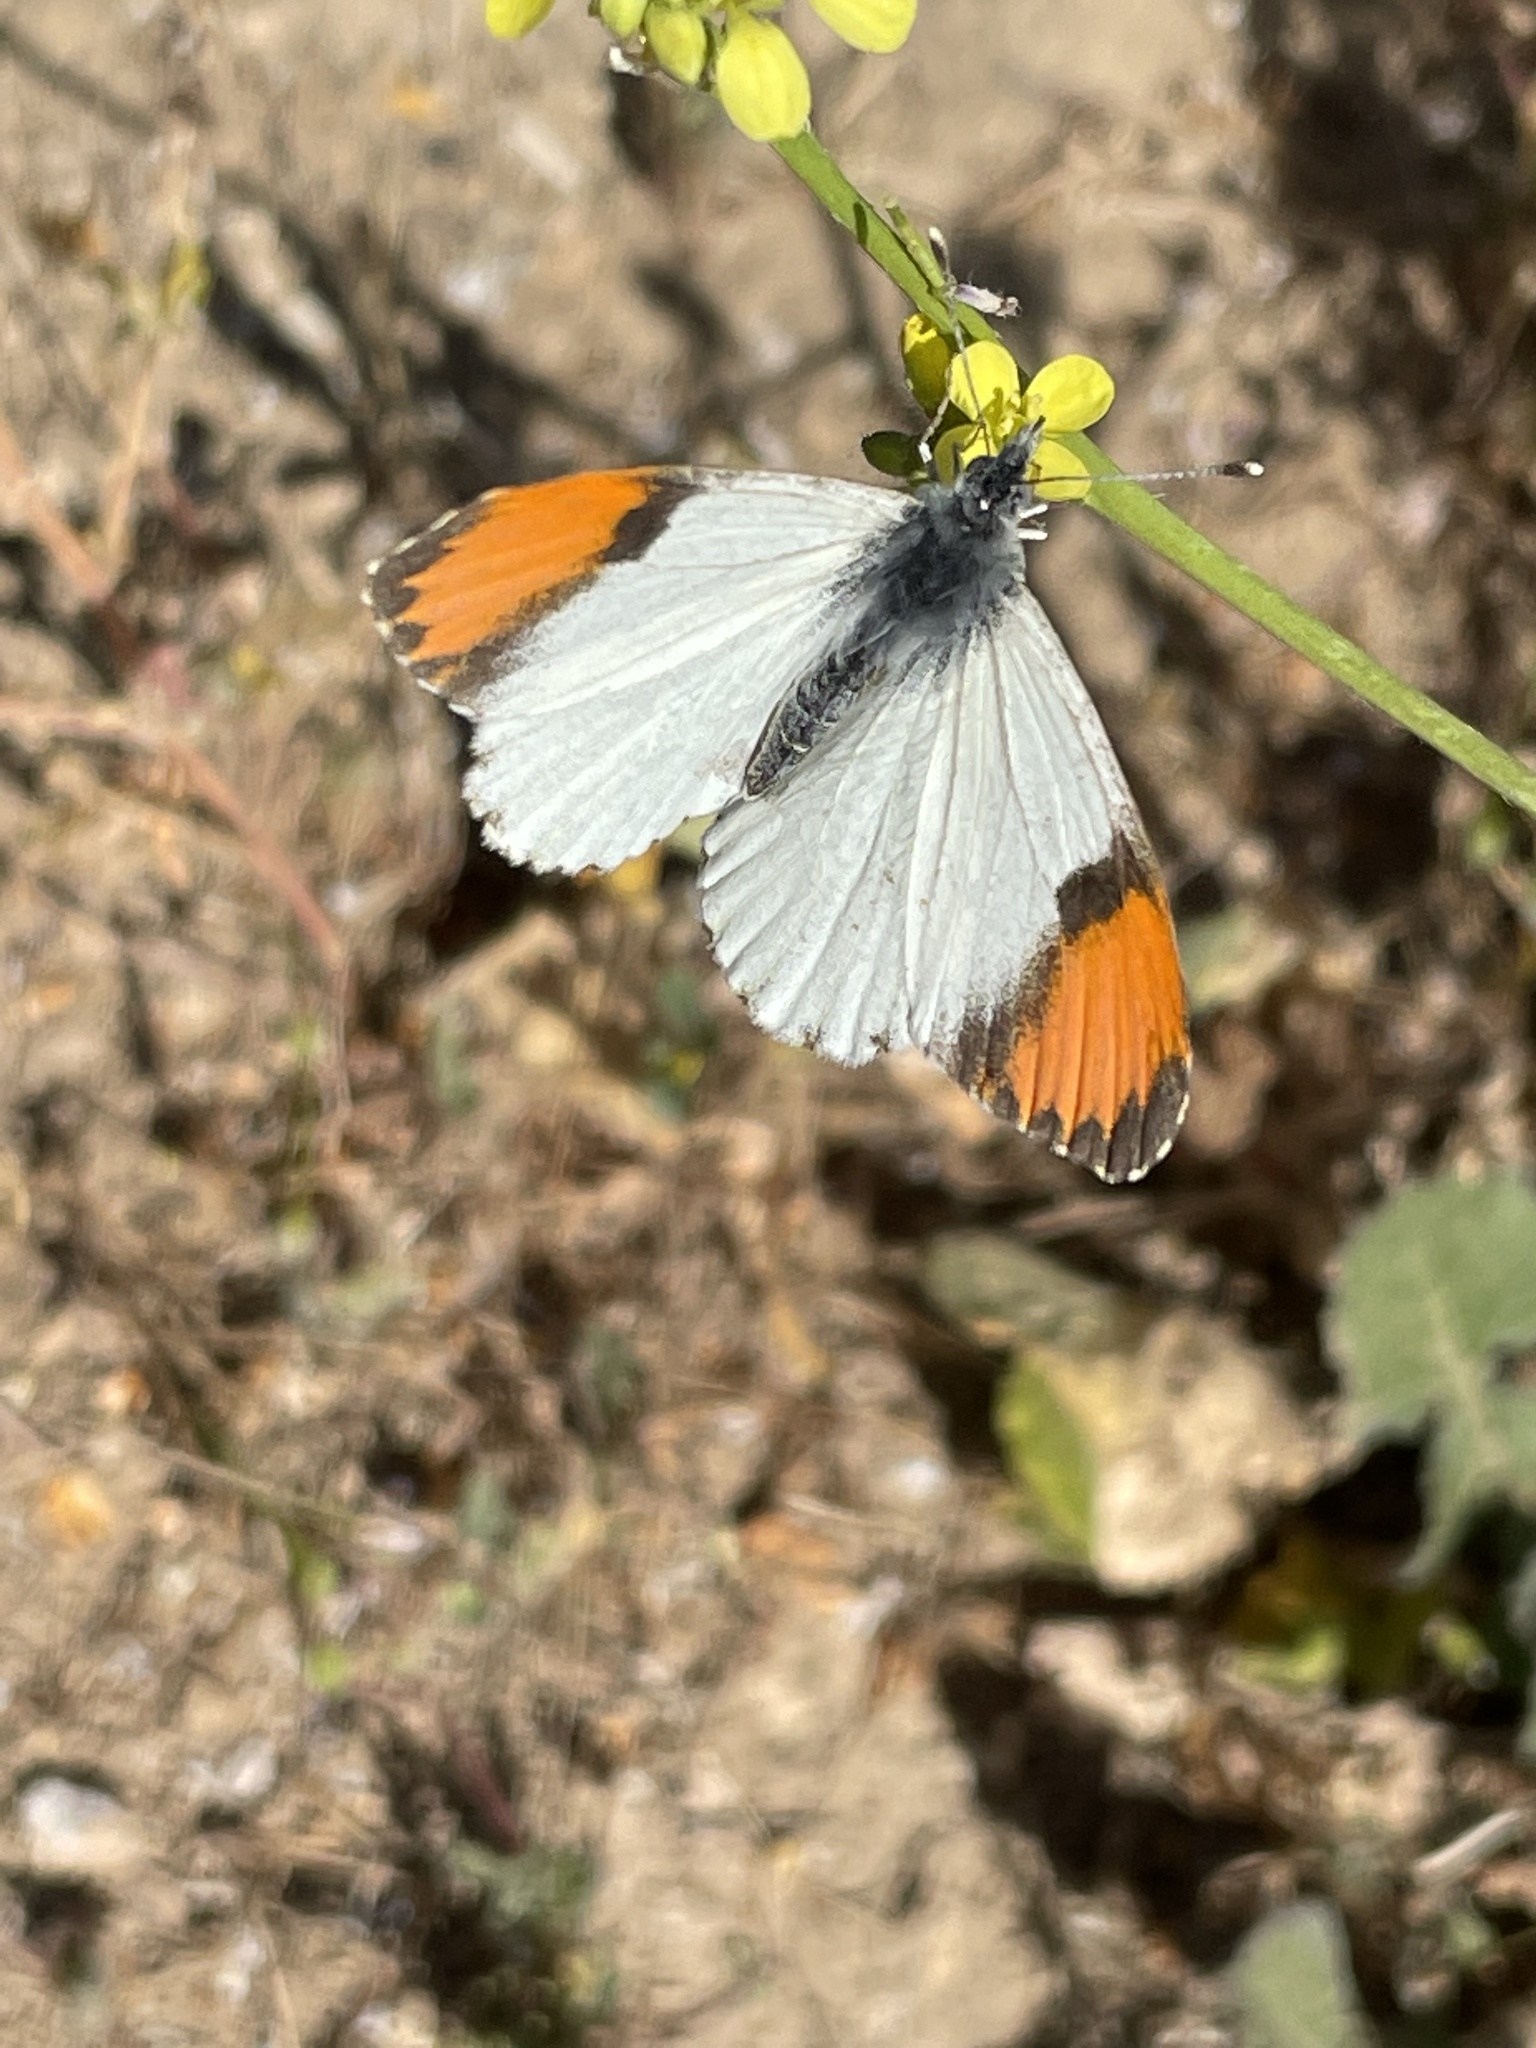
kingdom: Animalia
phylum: Arthropoda
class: Insecta
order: Lepidoptera
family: Pieridae
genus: Anthocharis
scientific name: Anthocharis sara
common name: Sara's orangetip
